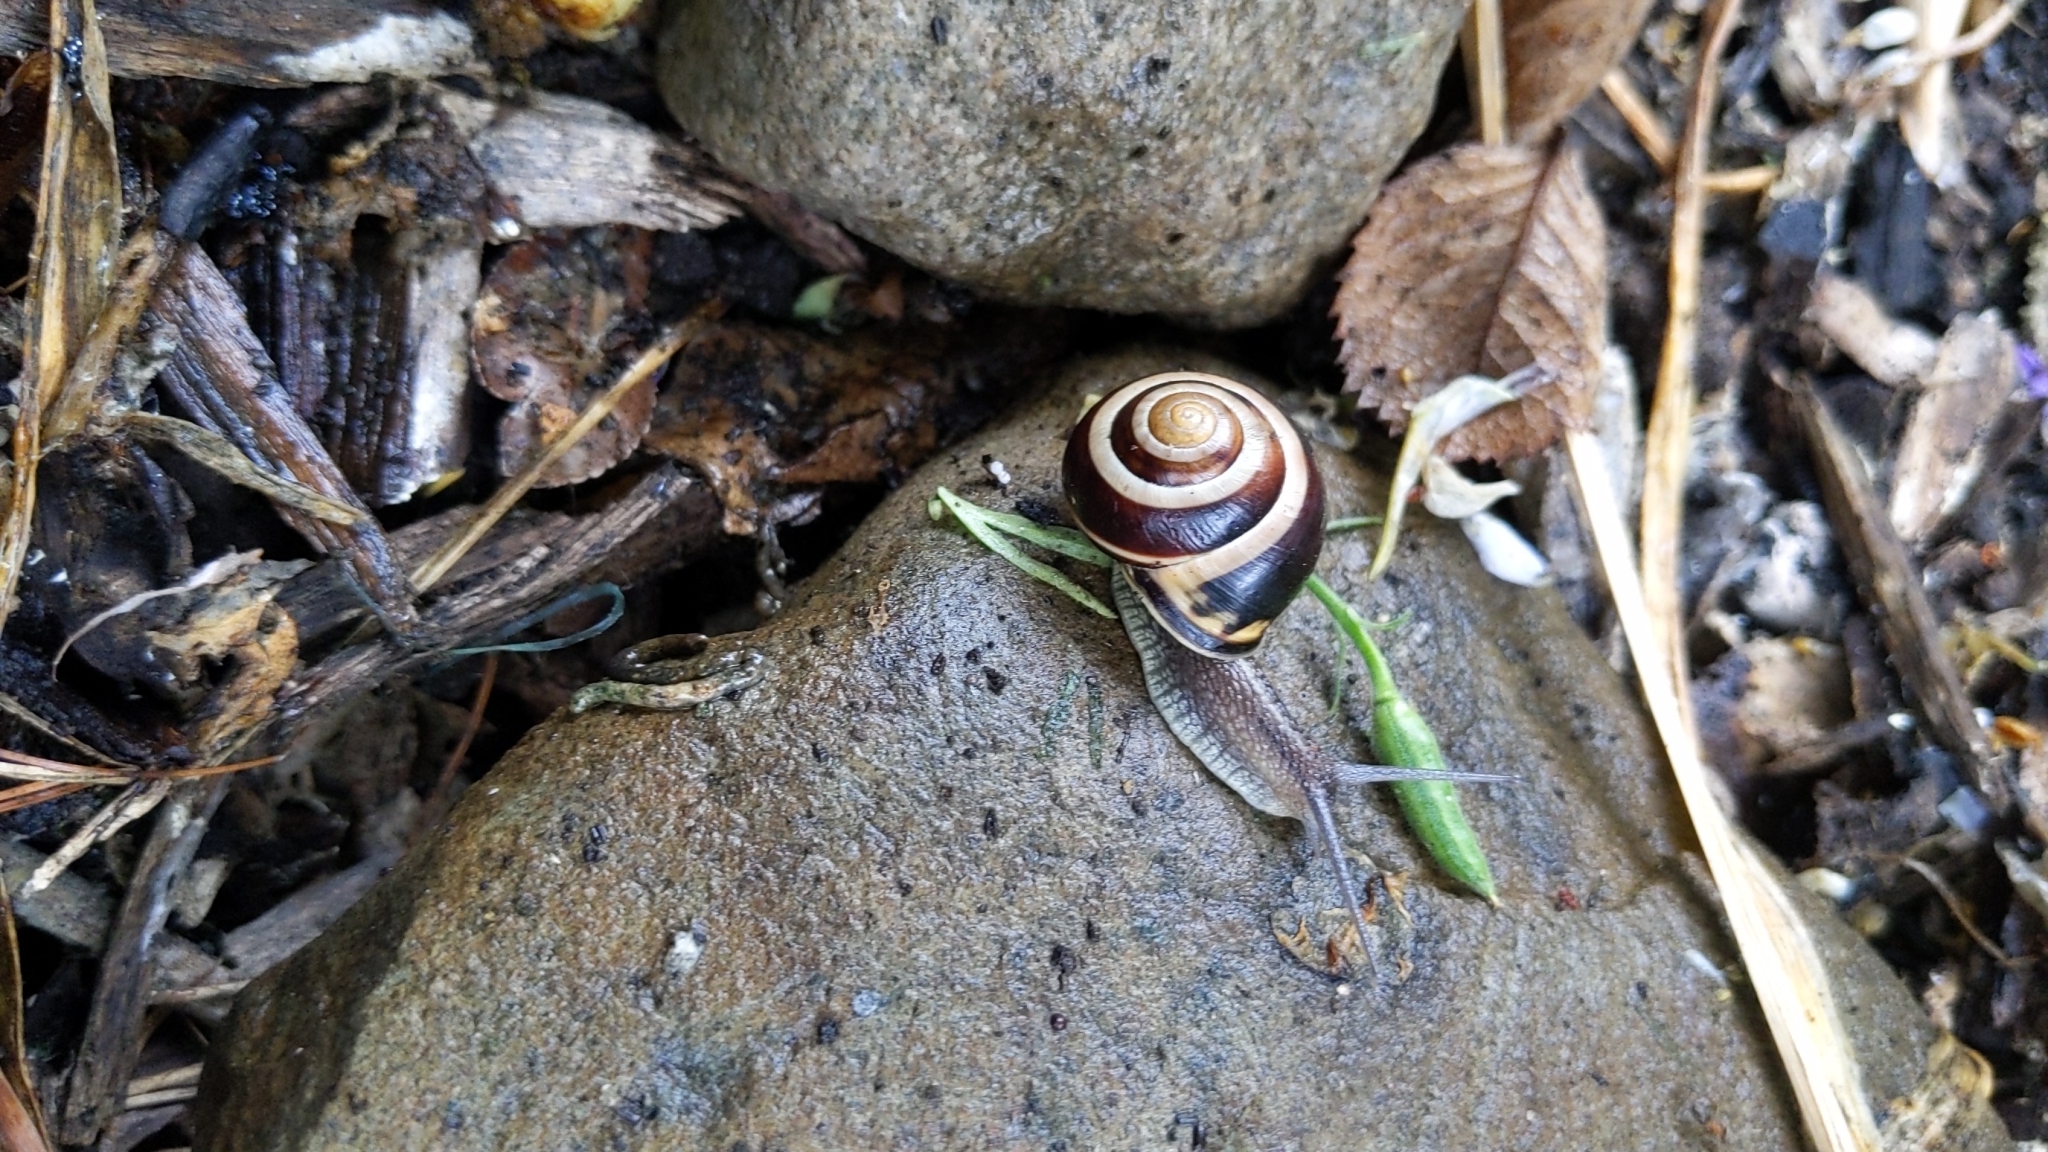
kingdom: Animalia
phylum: Mollusca
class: Gastropoda
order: Stylommatophora
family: Helicidae
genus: Cepaea
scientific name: Cepaea nemoralis
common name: Grovesnail
